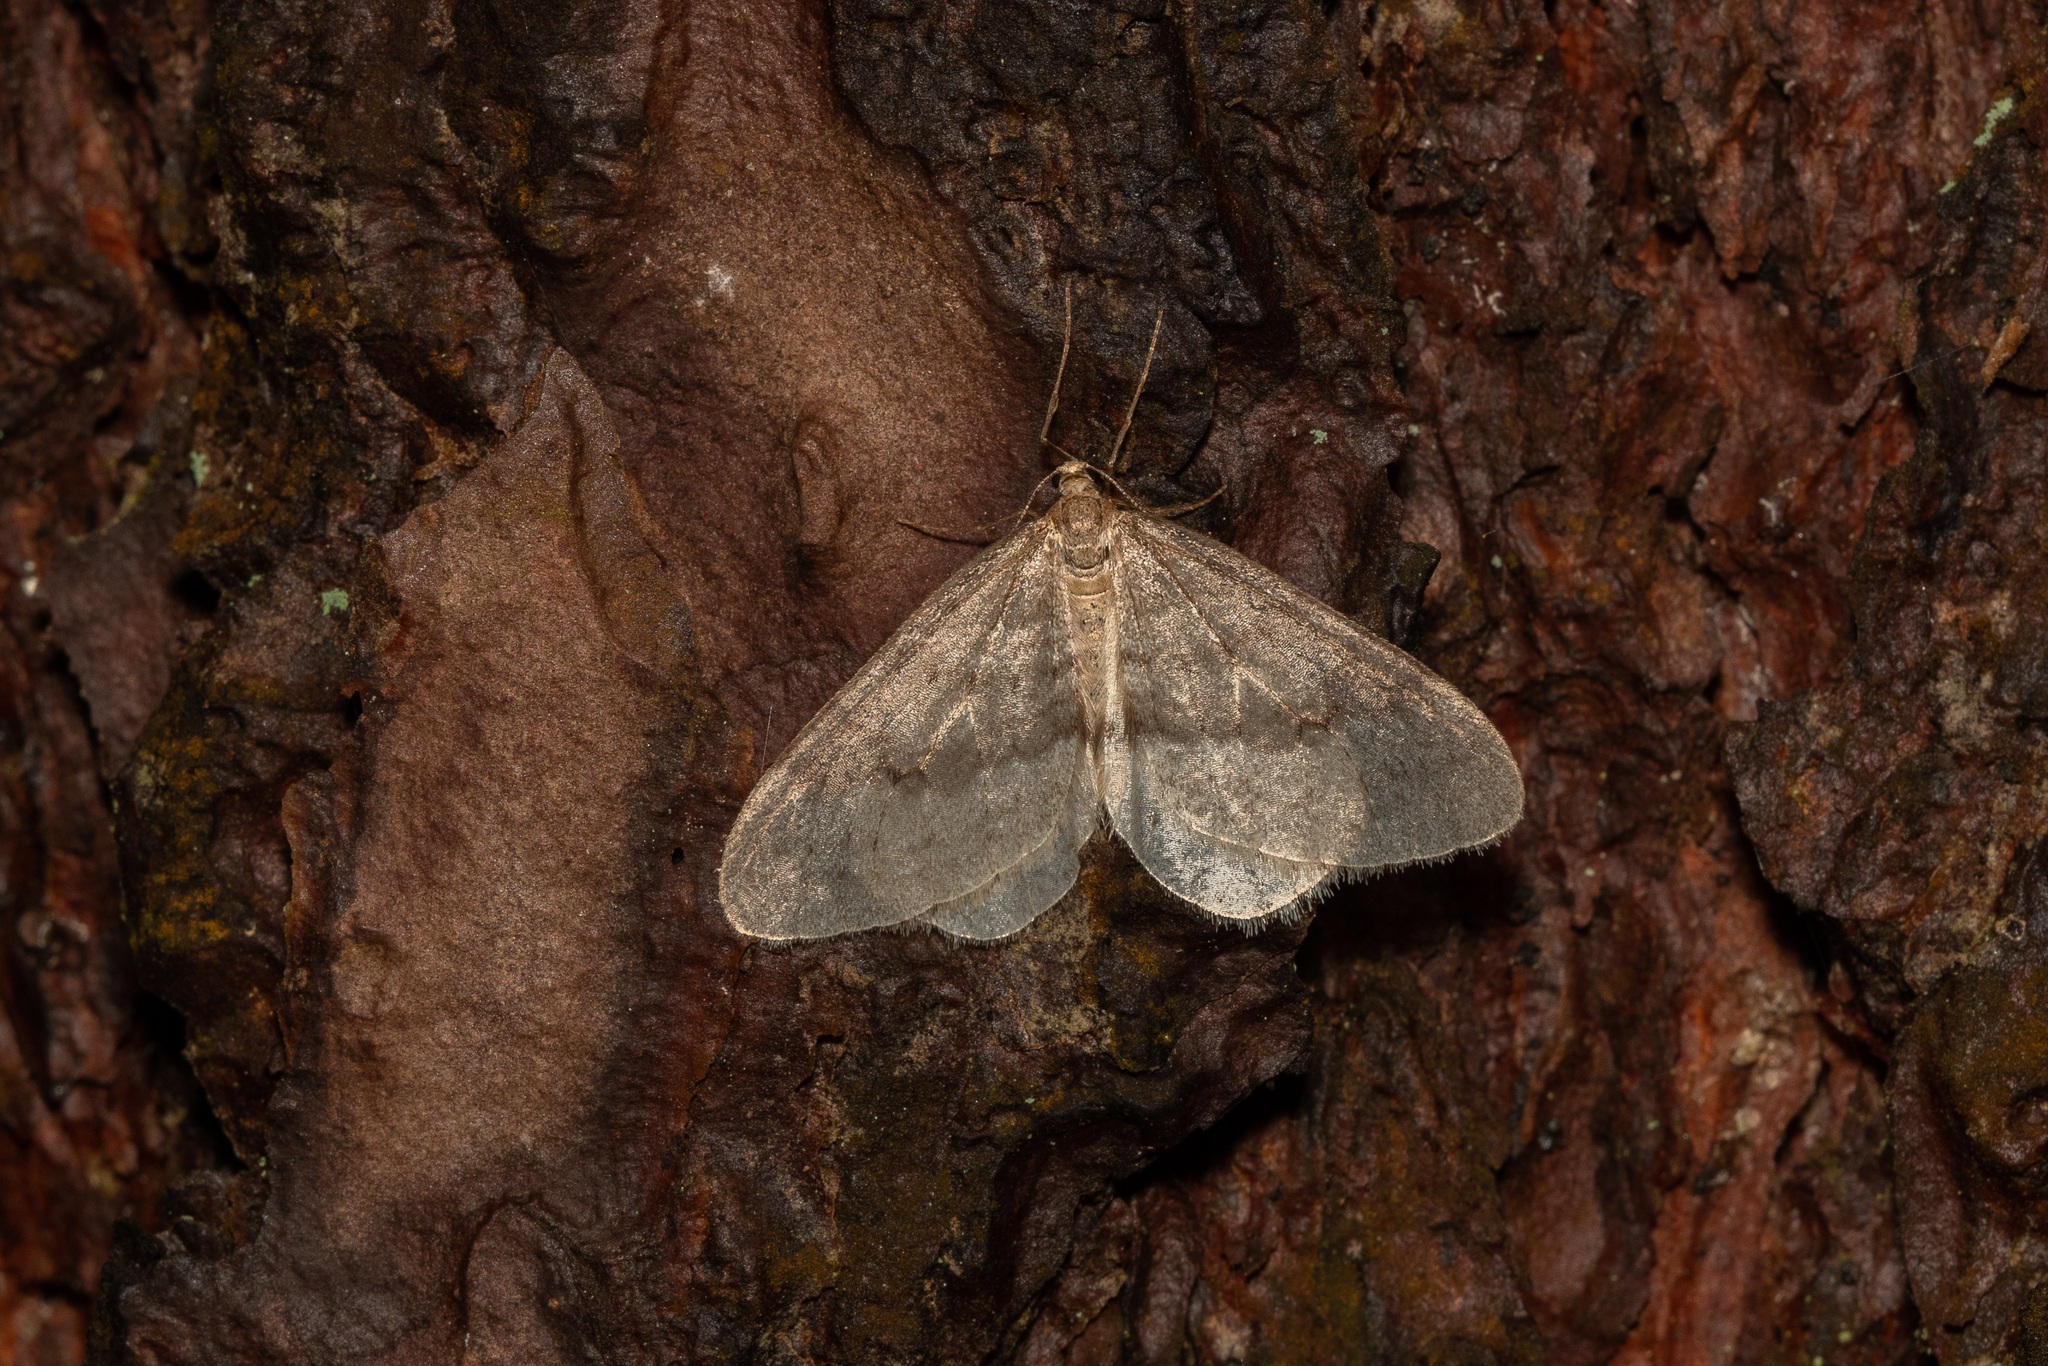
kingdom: Animalia
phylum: Arthropoda
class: Insecta
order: Lepidoptera
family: Geometridae
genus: Operophtera
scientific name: Operophtera fagata
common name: Northern winter moth
